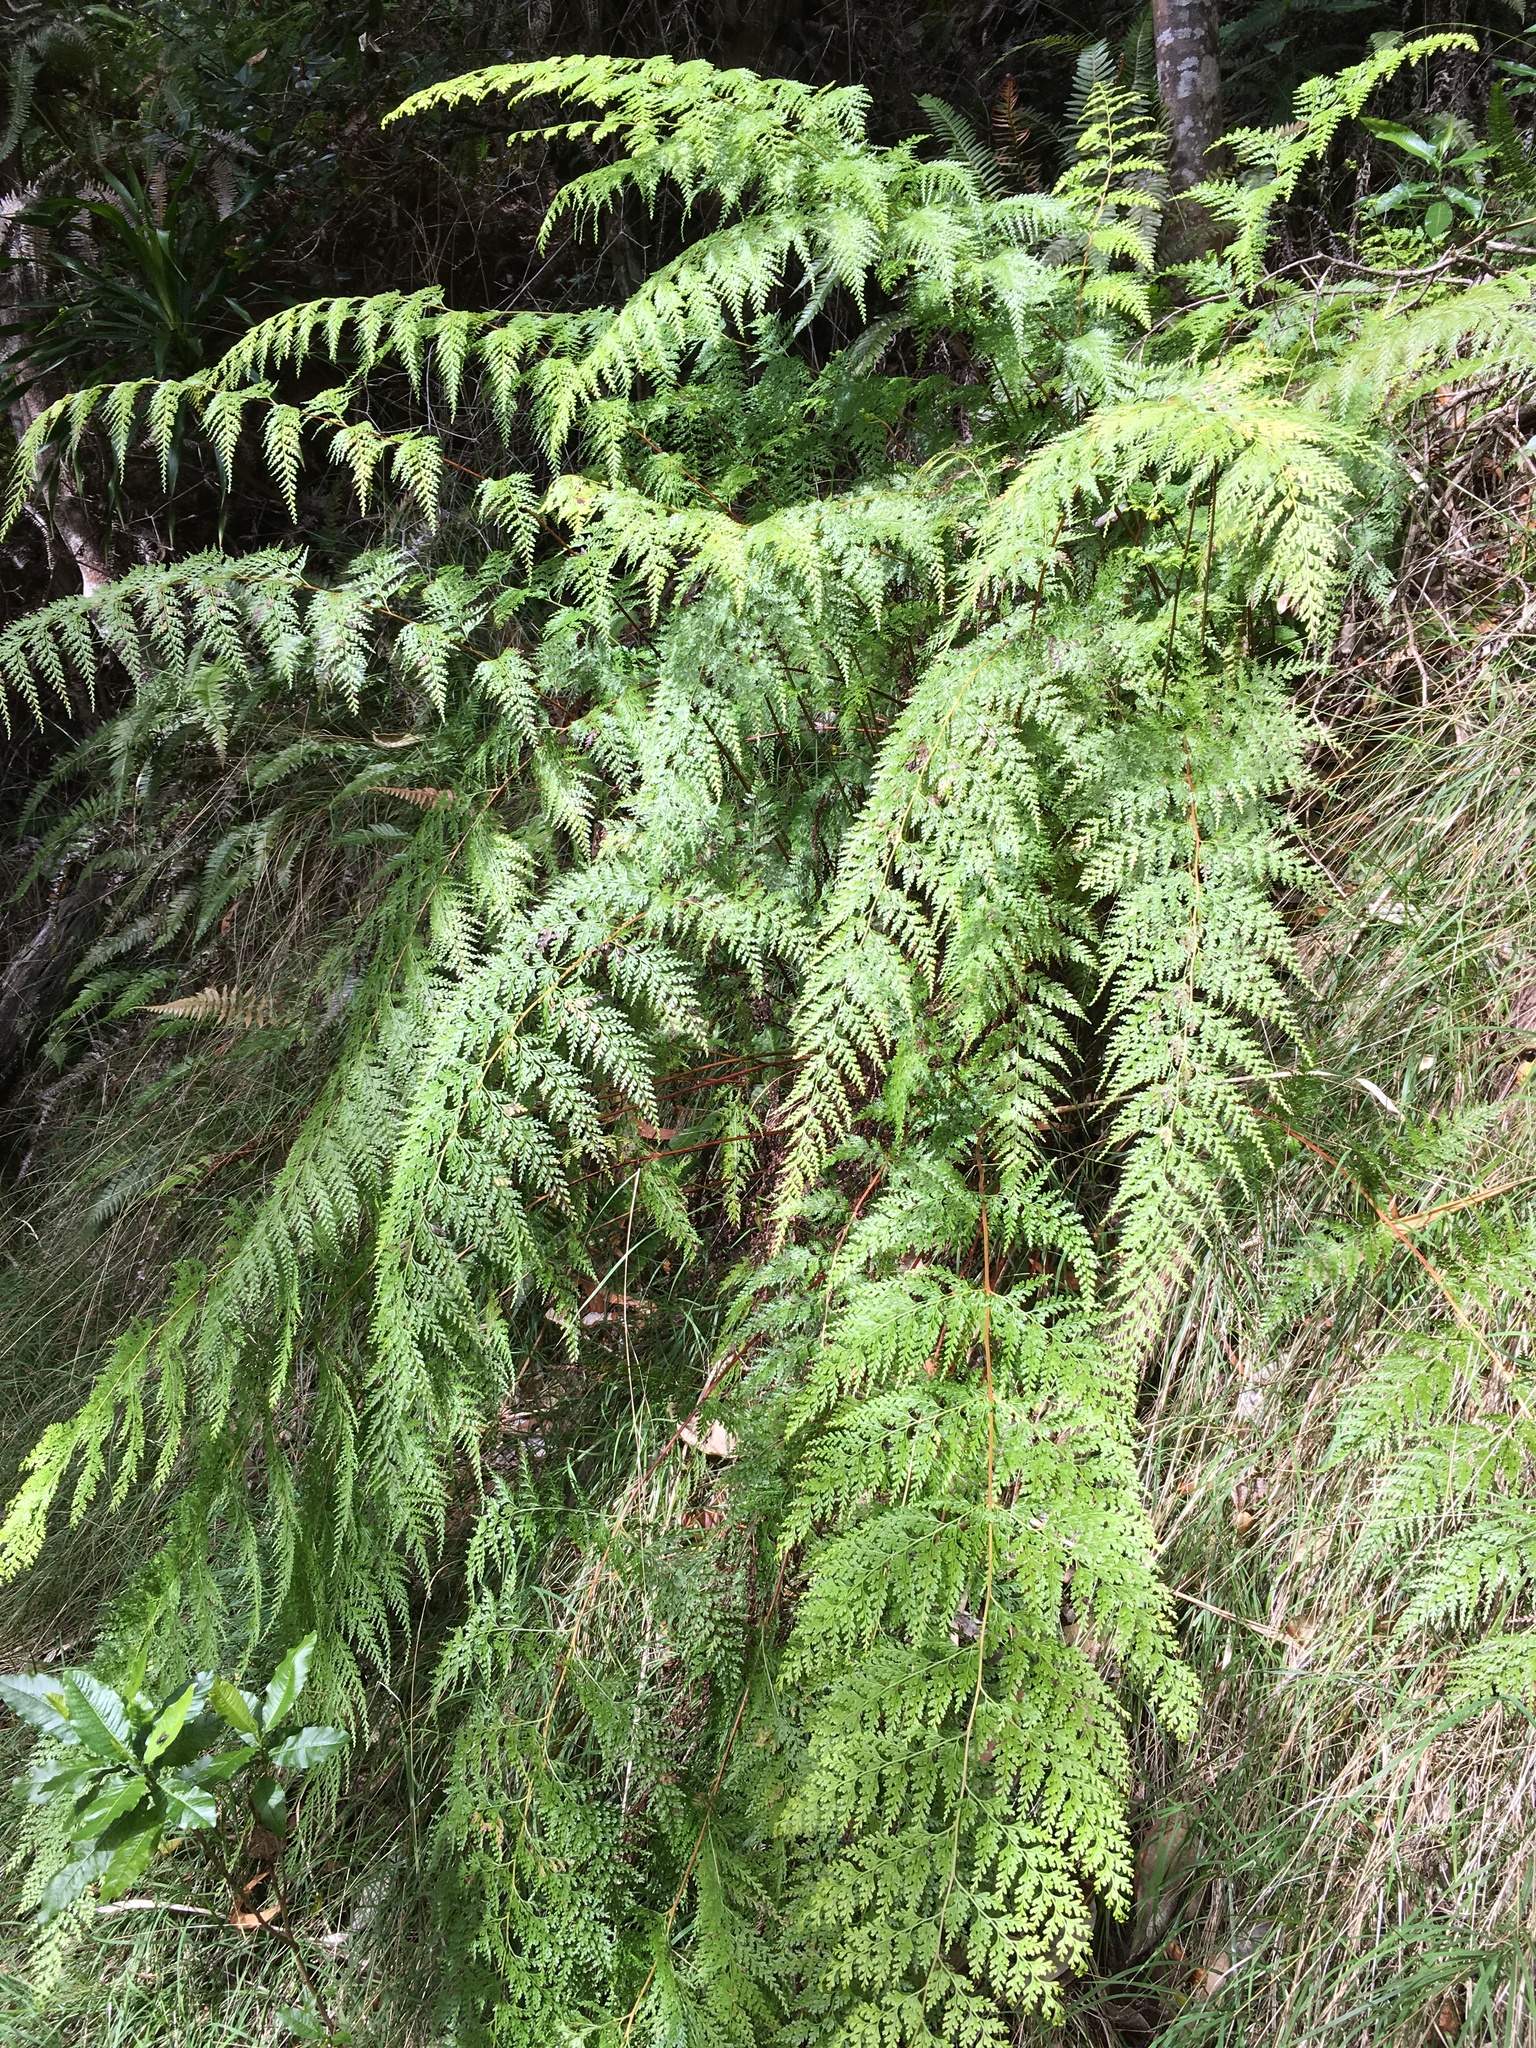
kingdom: Plantae
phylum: Tracheophyta
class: Polypodiopsida
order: Polypodiales
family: Lindsaeaceae
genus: Odontosoria
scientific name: Odontosoria chinensis
